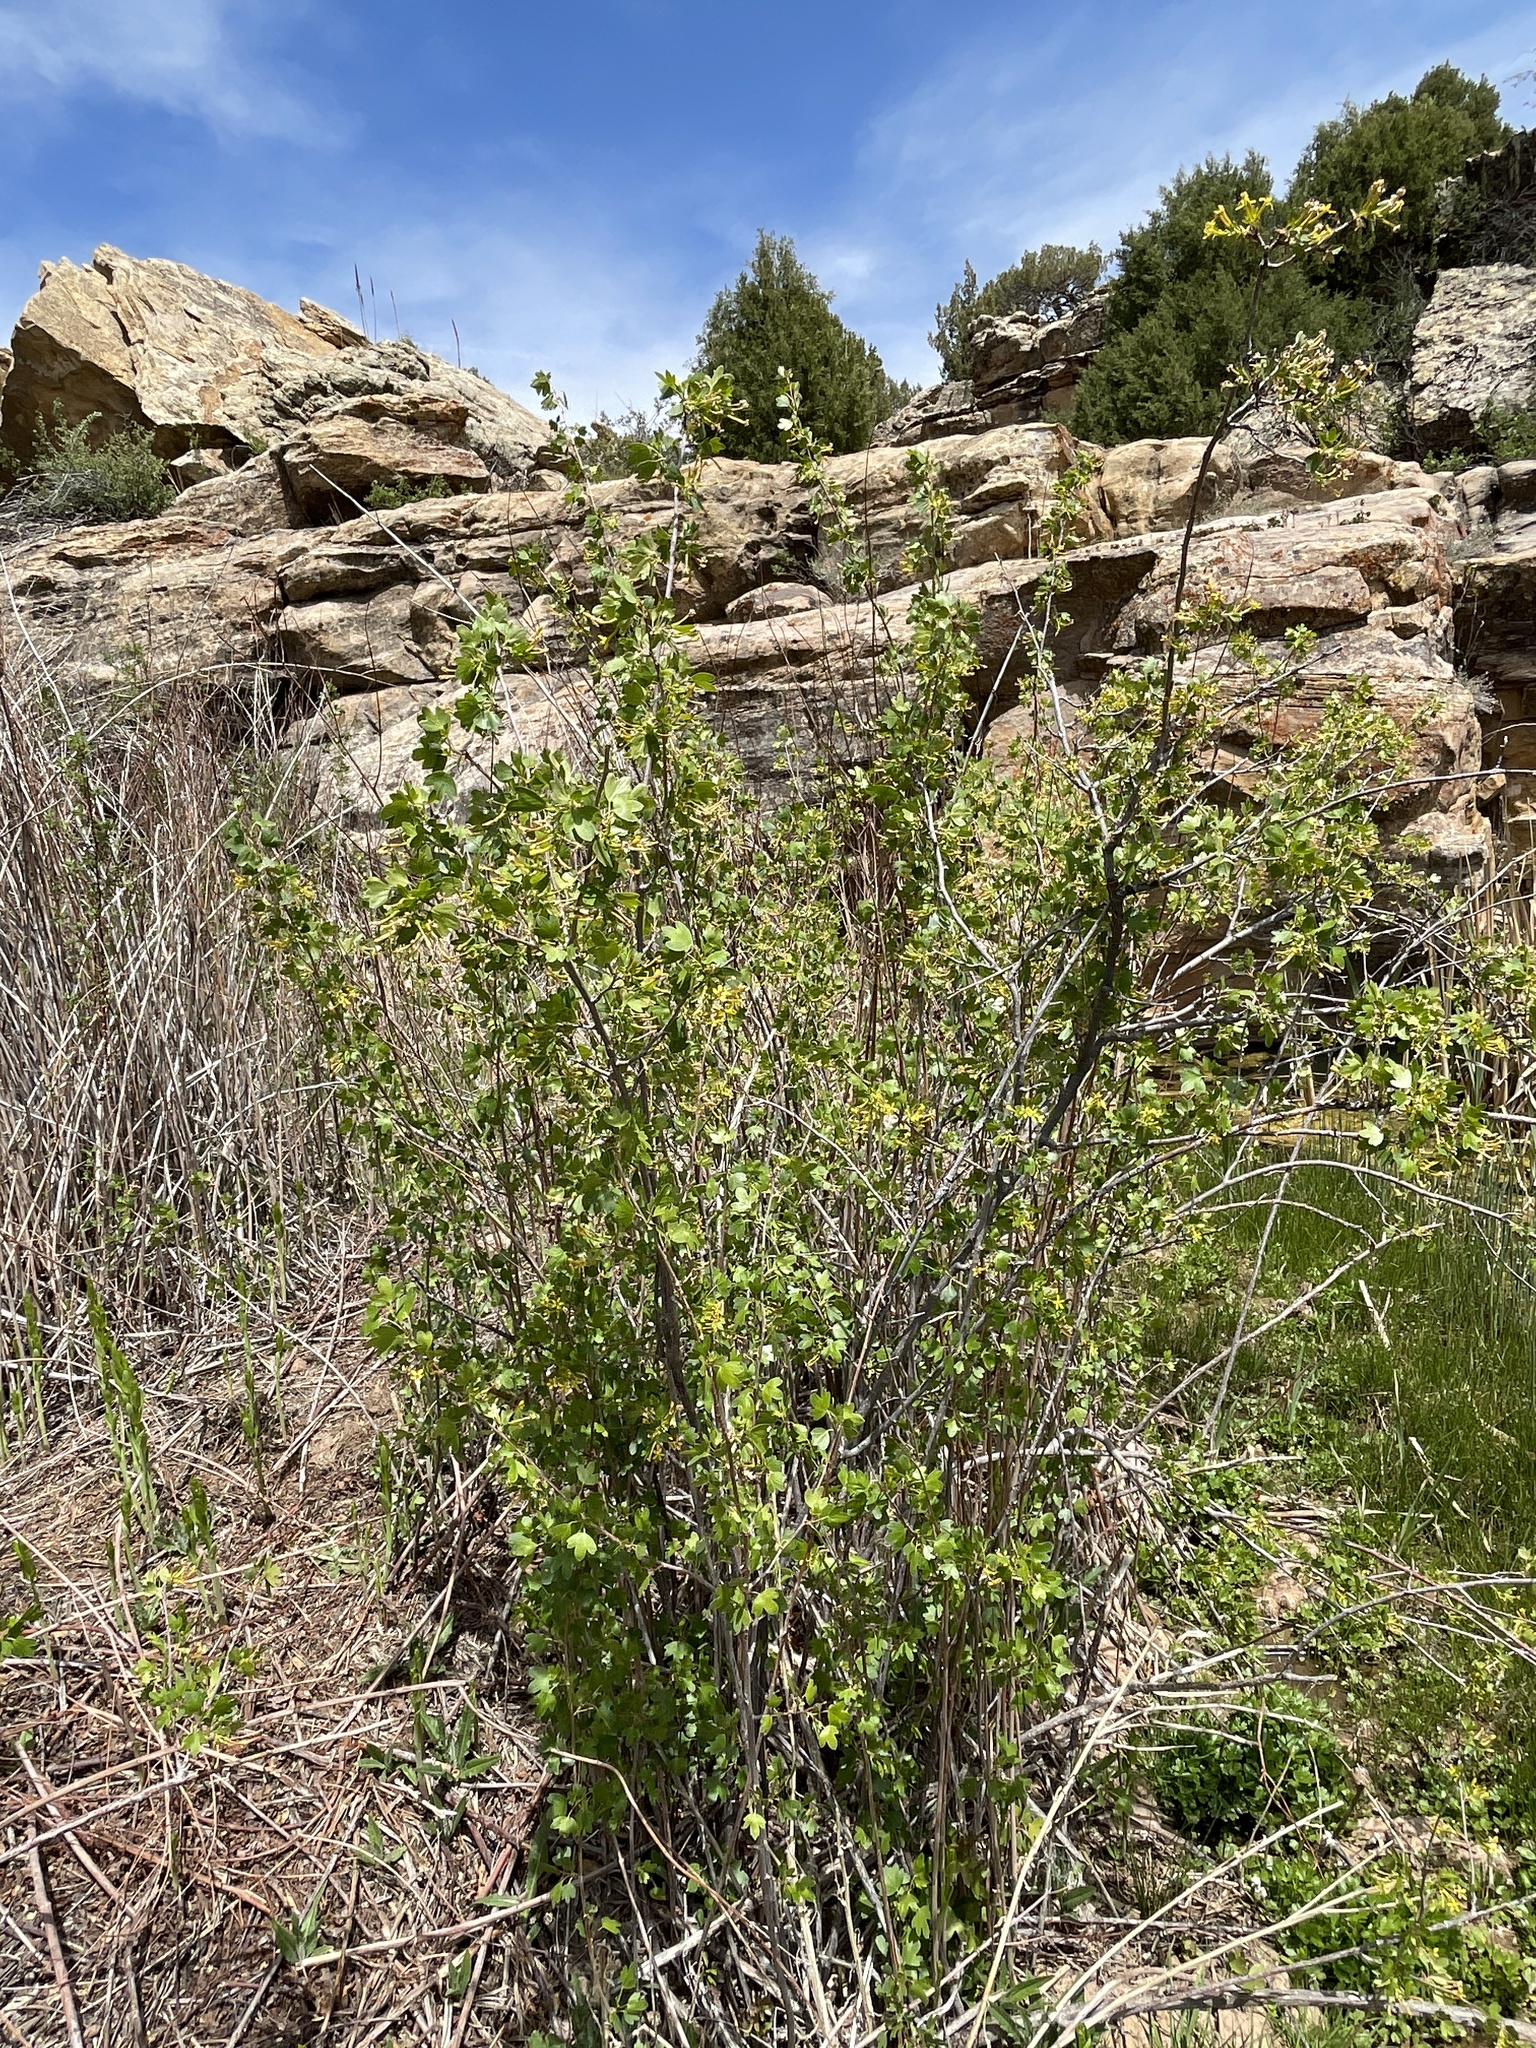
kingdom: Plantae
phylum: Tracheophyta
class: Magnoliopsida
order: Saxifragales
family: Grossulariaceae
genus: Ribes
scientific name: Ribes aureum
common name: Golden currant
